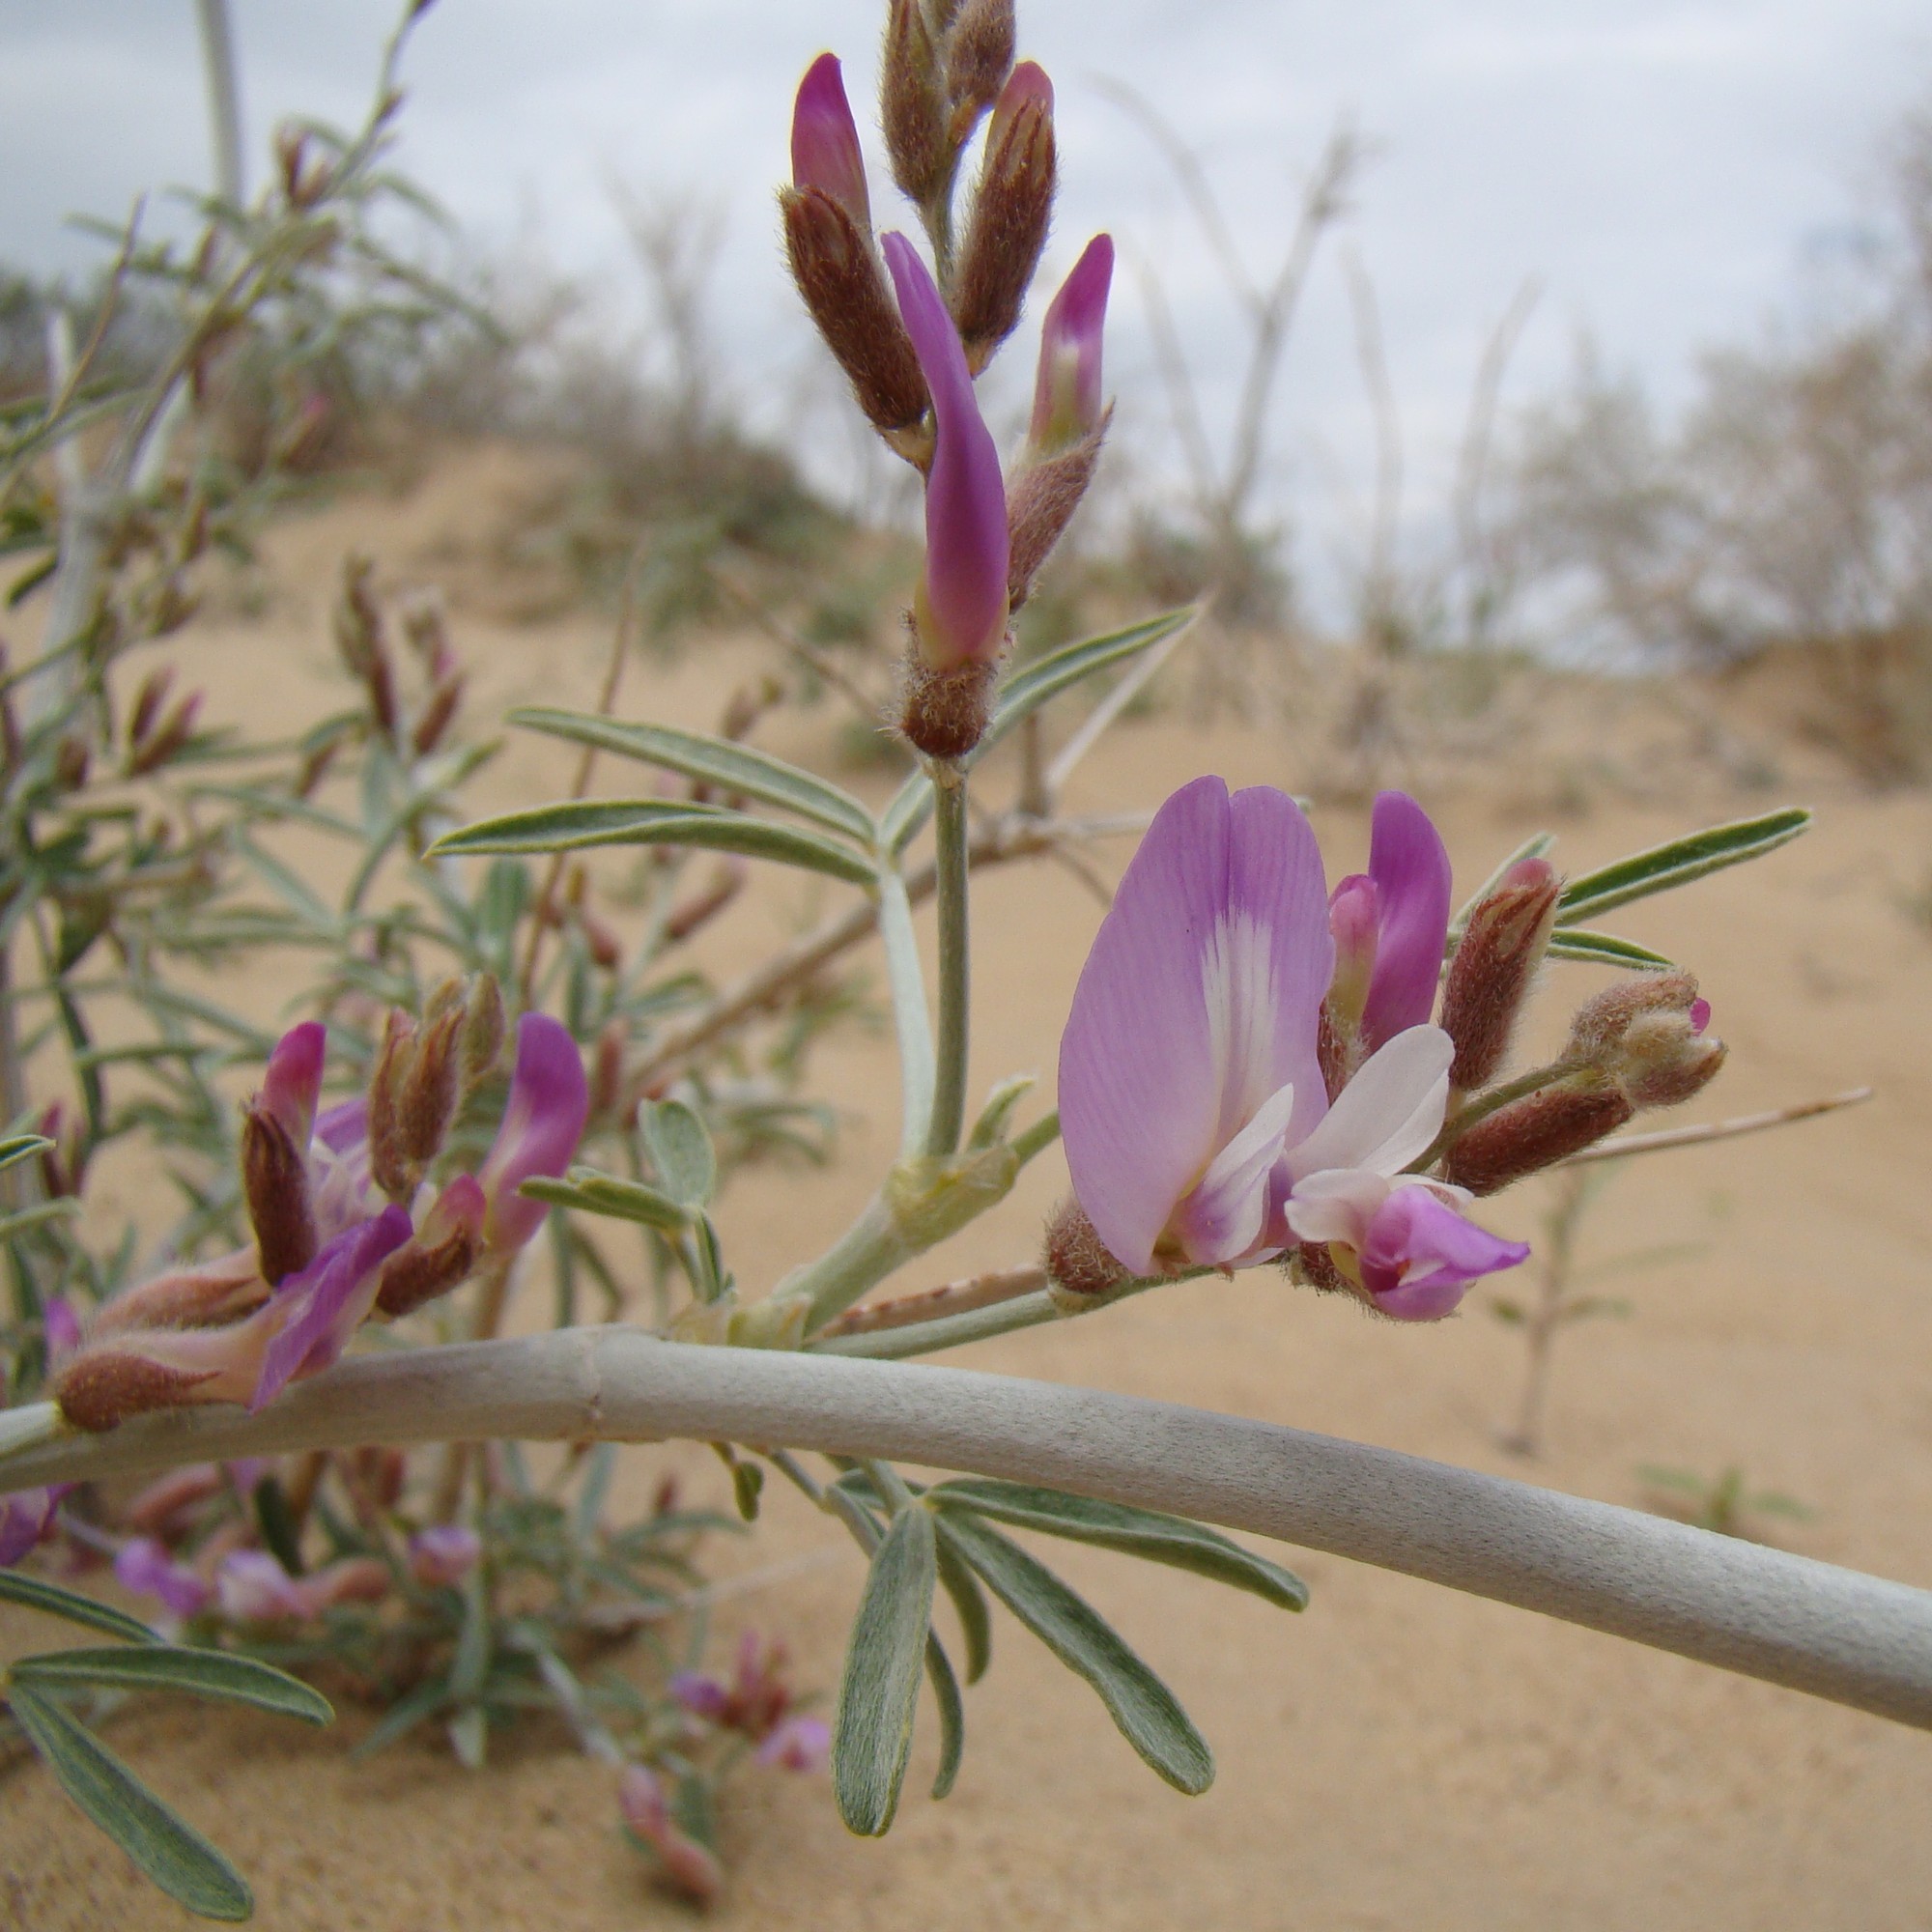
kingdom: Plantae
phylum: Tracheophyta
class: Magnoliopsida
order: Fabales
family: Fabaceae
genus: Astragalus
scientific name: Astragalus brachypus
